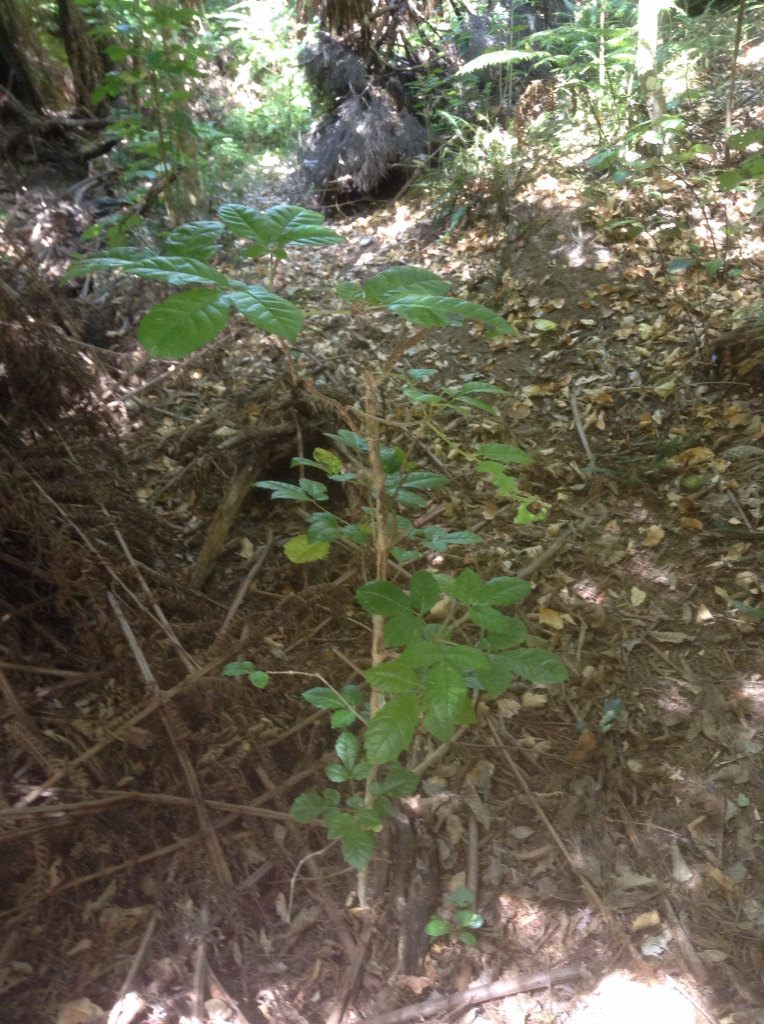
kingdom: Plantae
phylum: Tracheophyta
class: Magnoliopsida
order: Lamiales
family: Lamiaceae
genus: Vitex
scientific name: Vitex lucens
